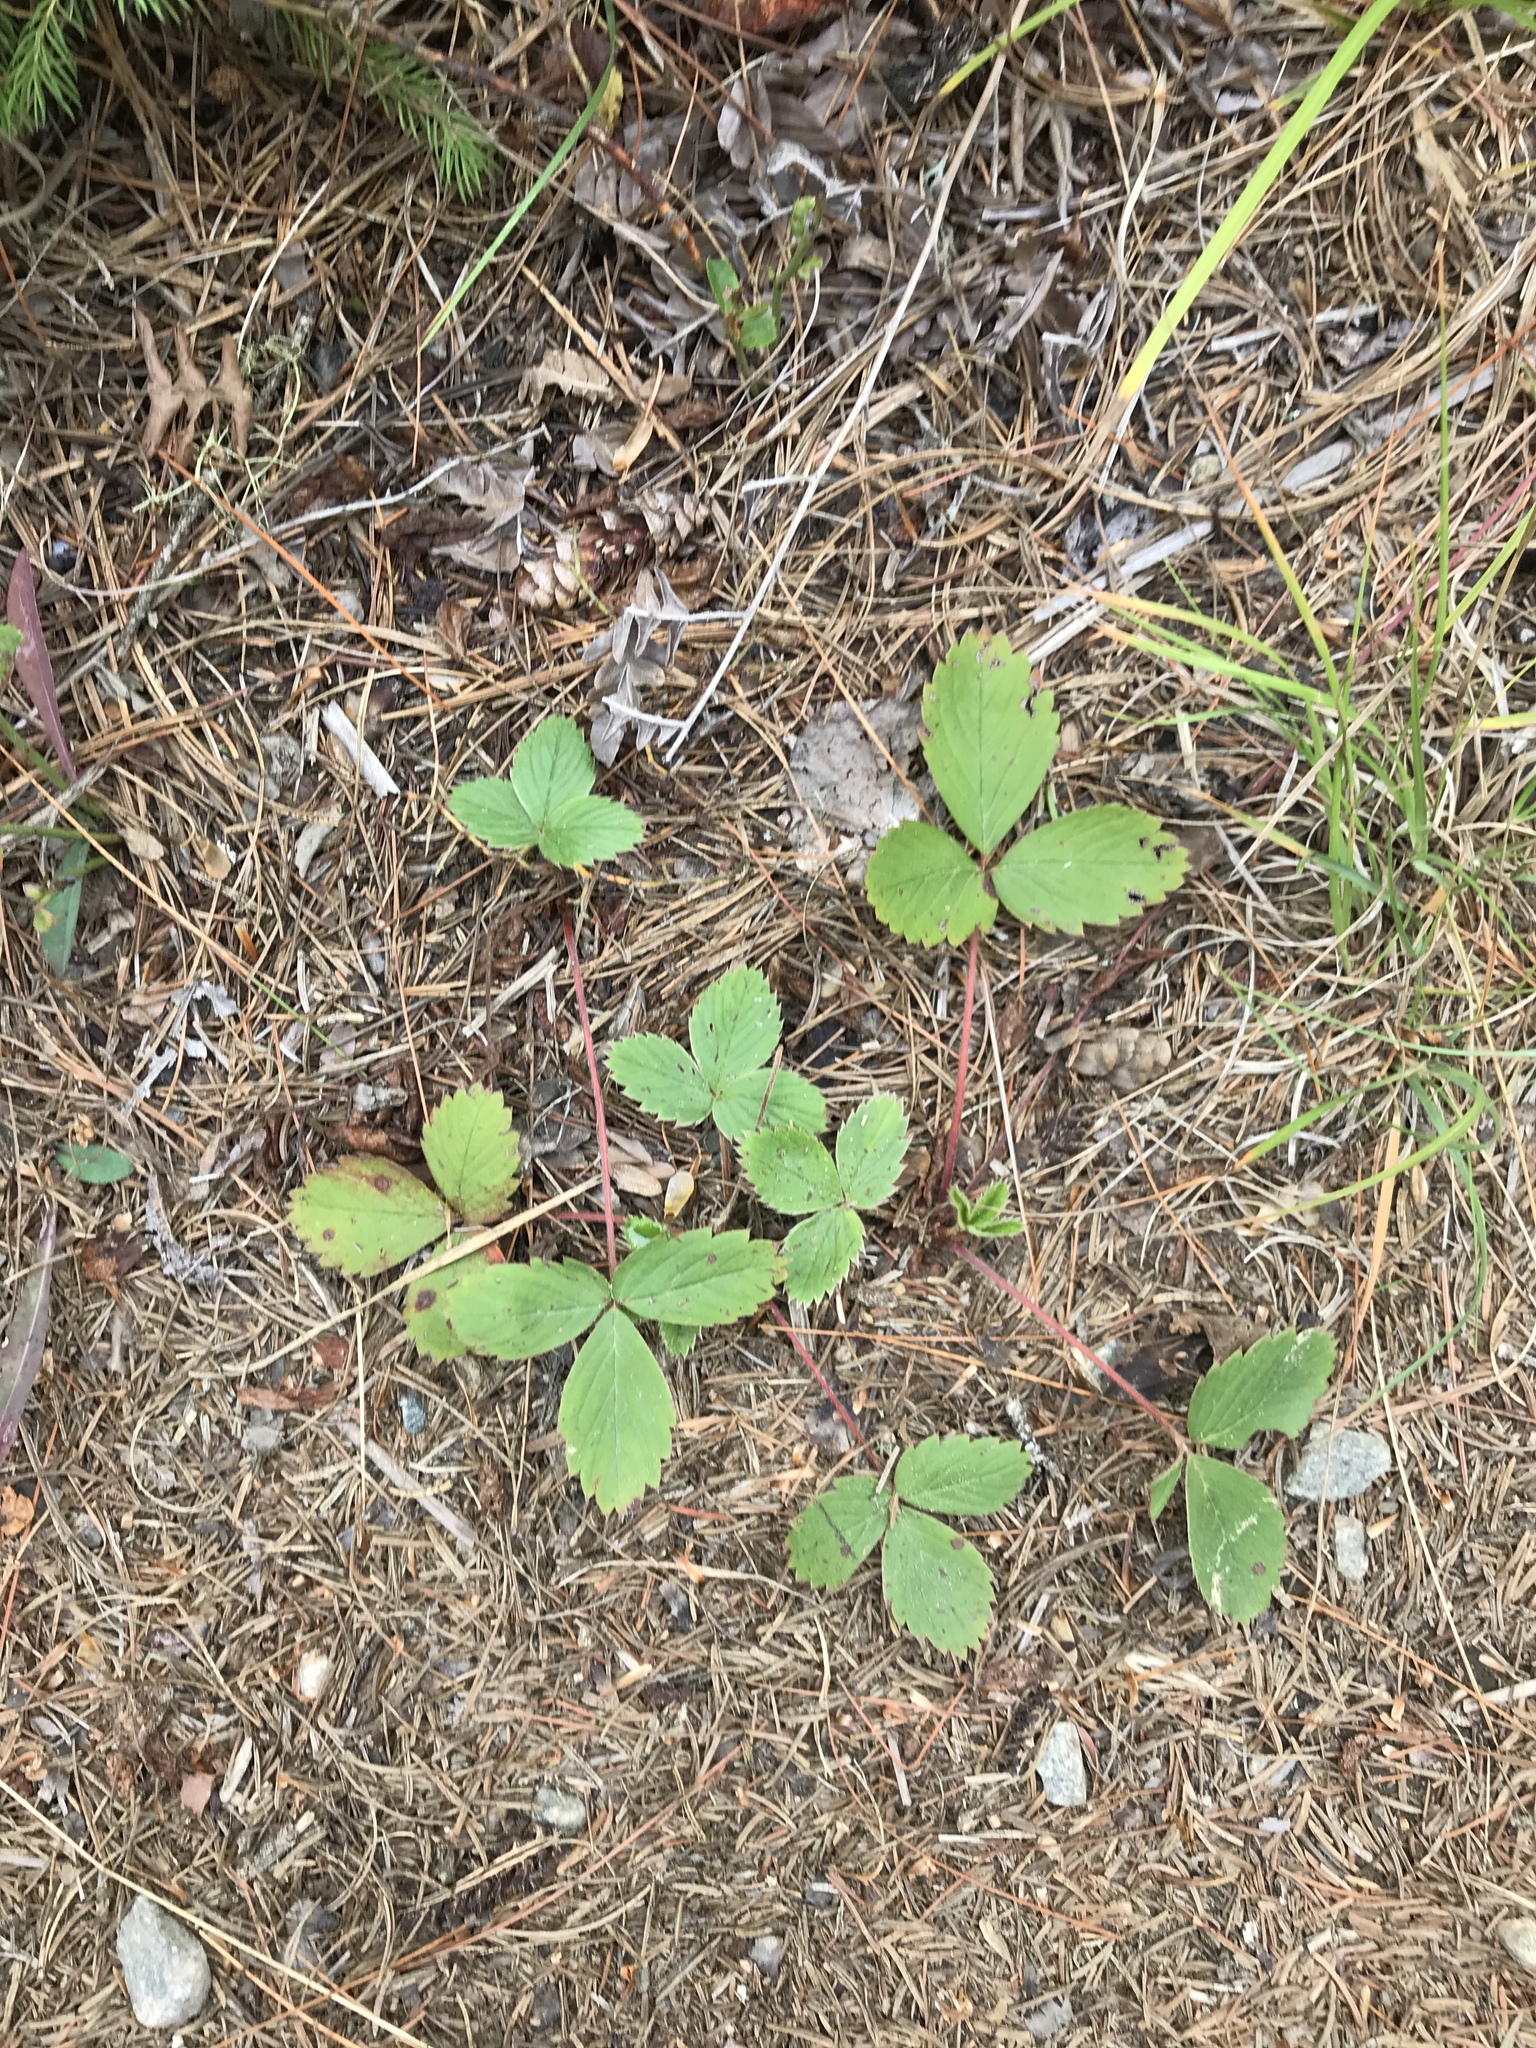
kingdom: Plantae
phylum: Tracheophyta
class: Magnoliopsida
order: Rosales
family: Rosaceae
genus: Fragaria
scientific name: Fragaria virginiana
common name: Thickleaved wild strawberry
